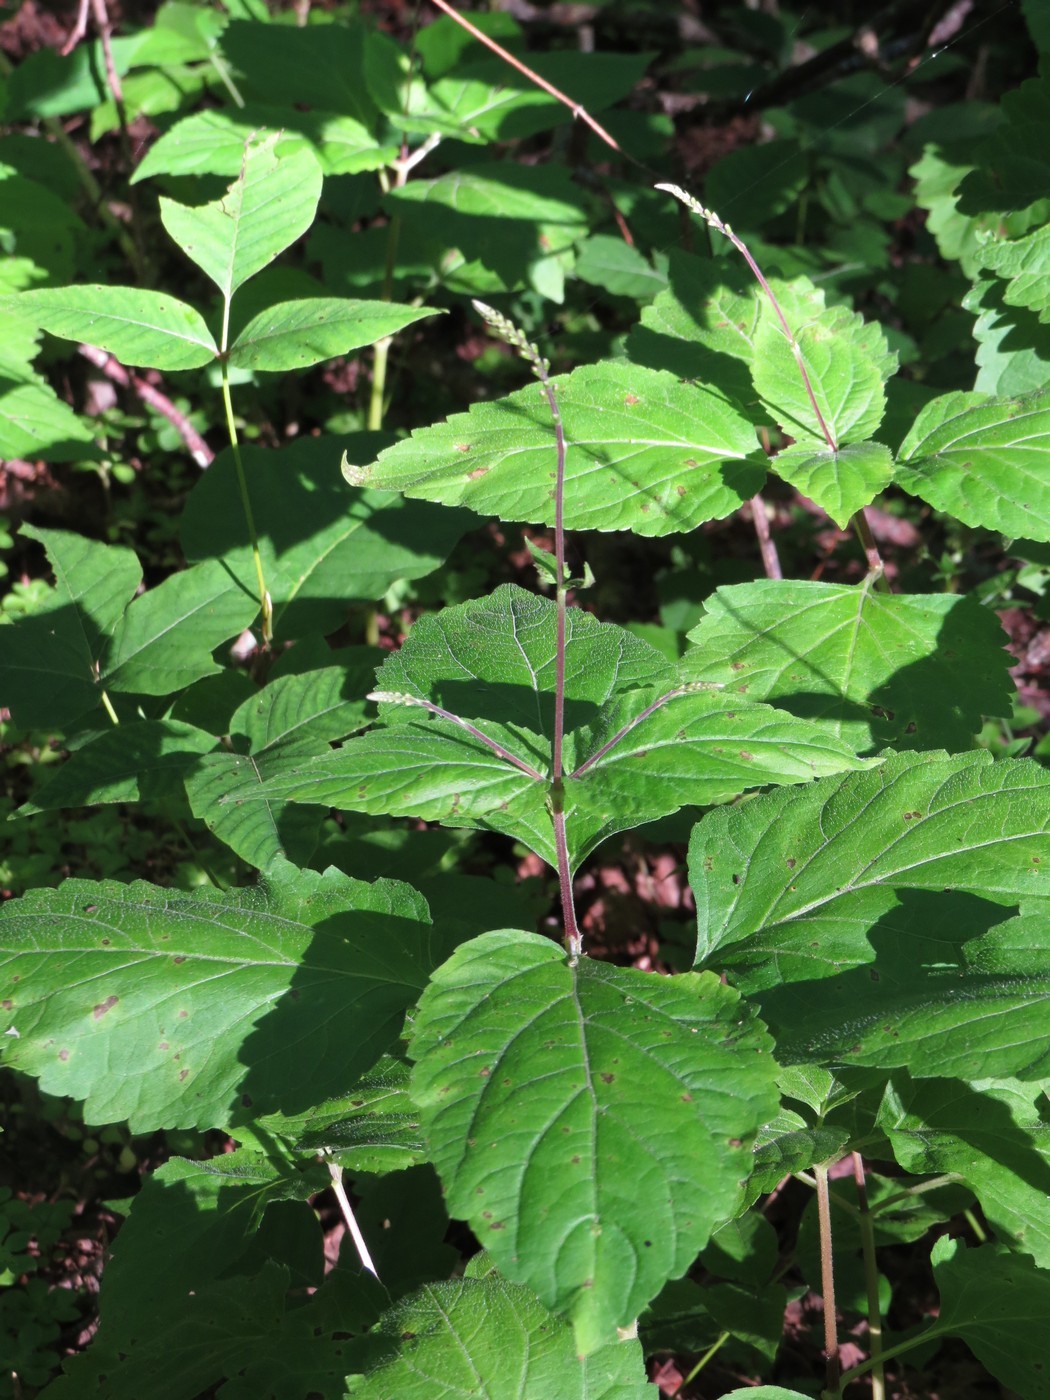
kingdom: Plantae
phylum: Tracheophyta
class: Magnoliopsida
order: Lamiales
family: Phrymaceae
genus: Phryma
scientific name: Phryma leptostachya
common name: American lopseed
